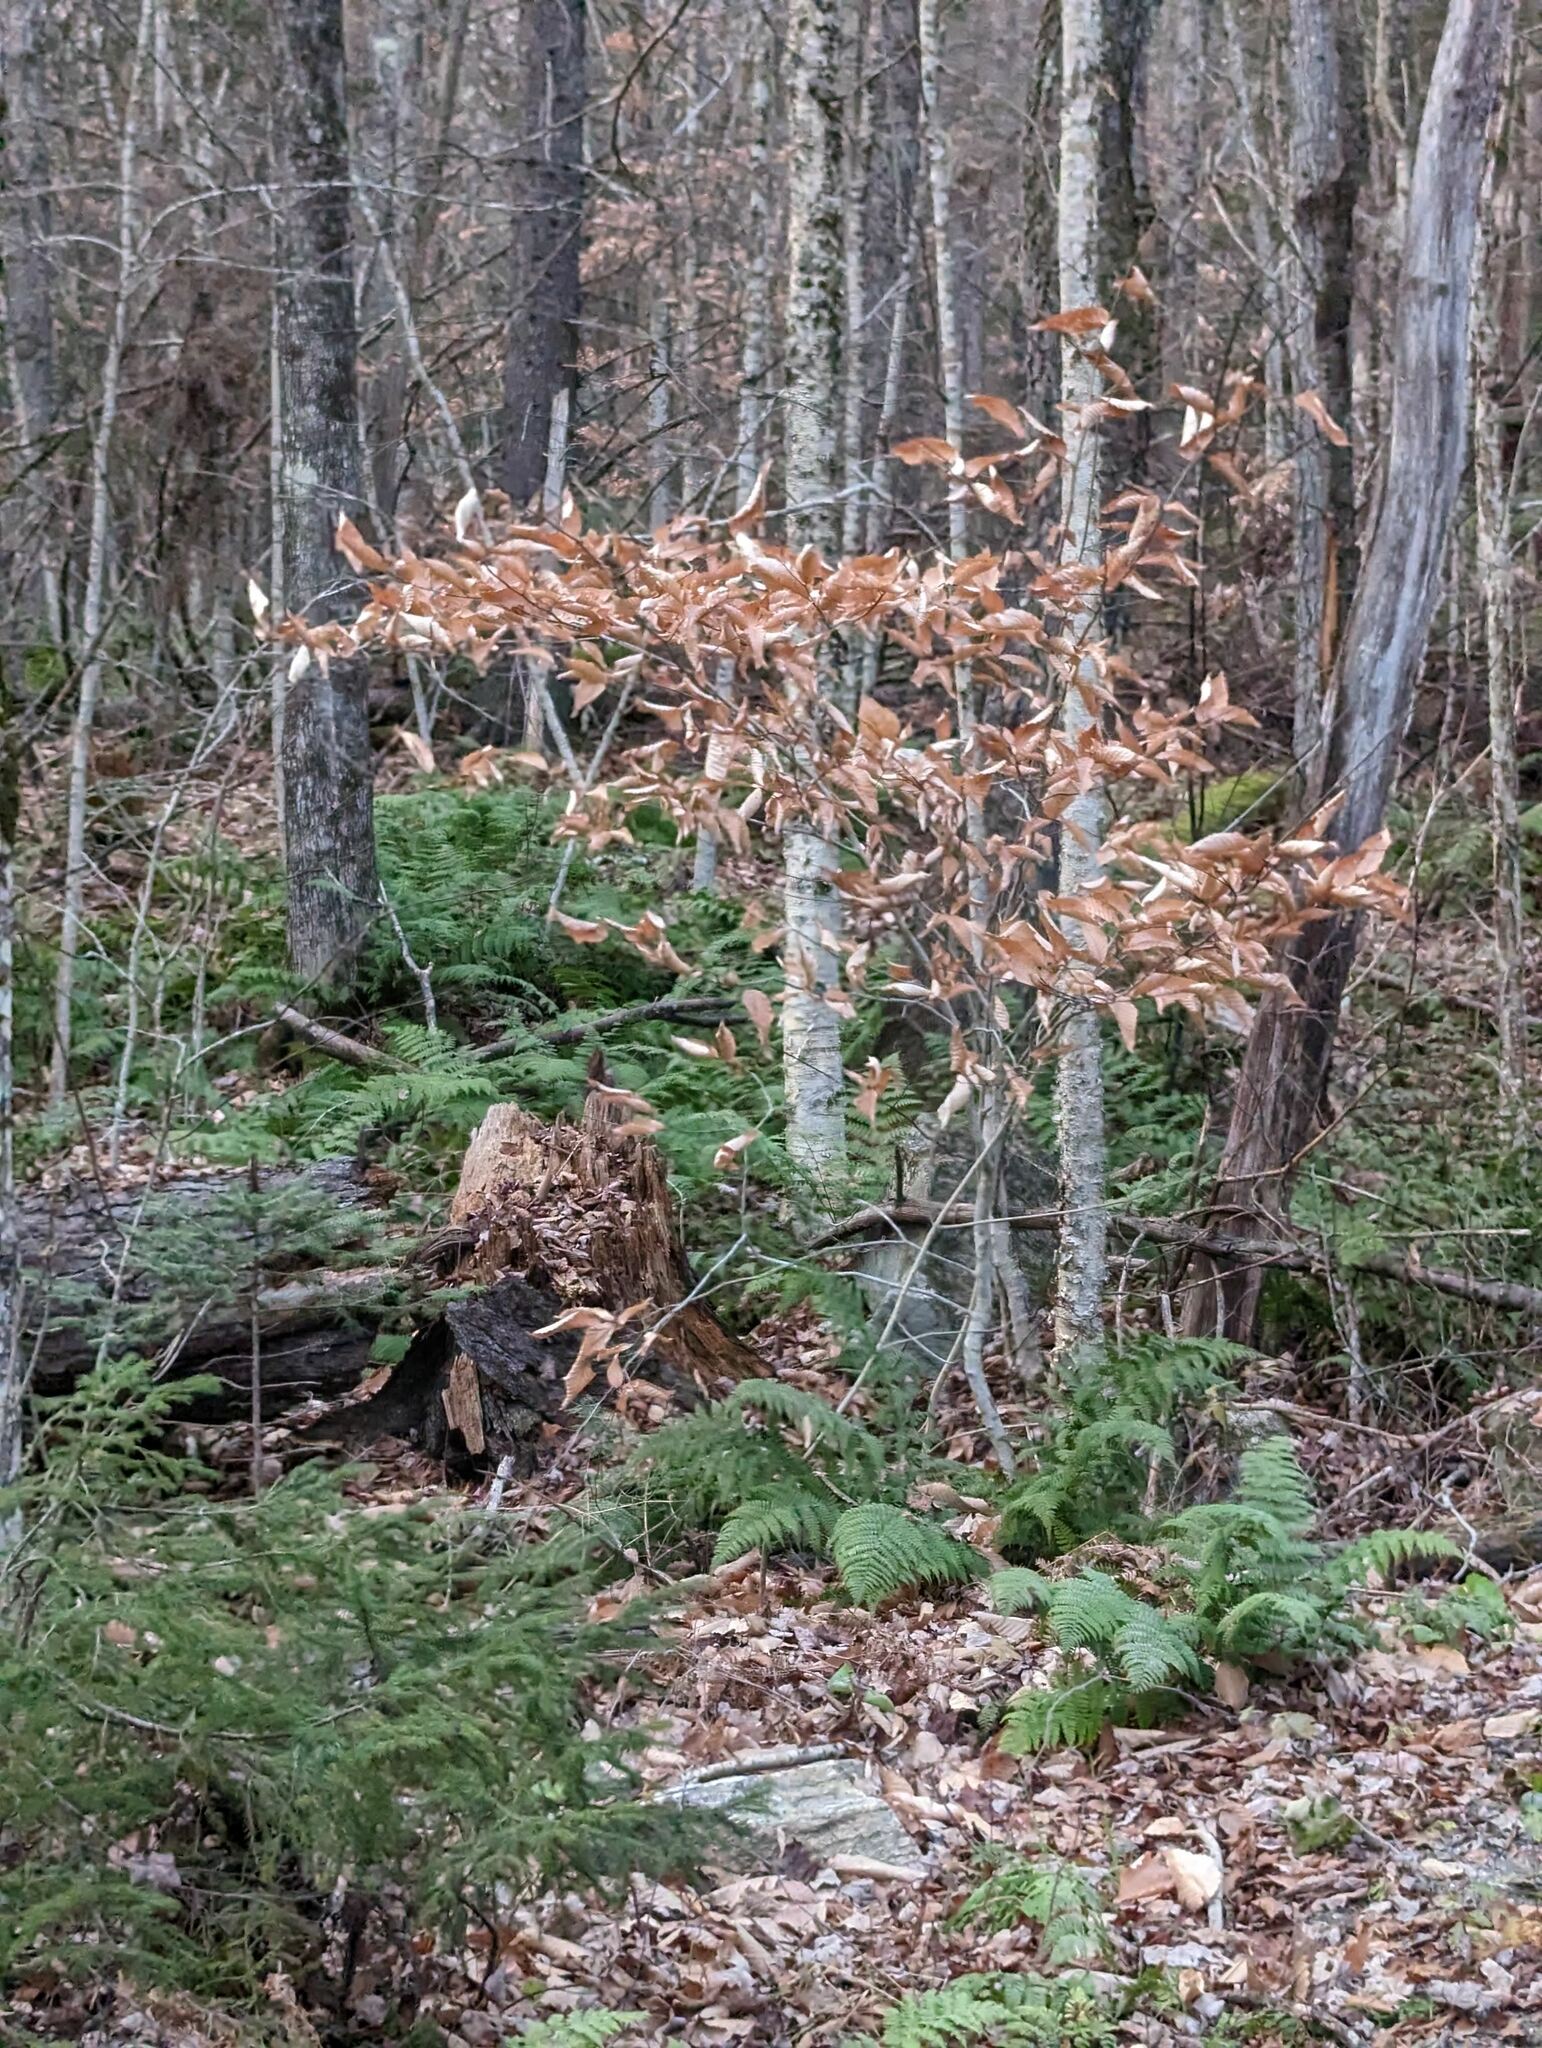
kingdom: Plantae
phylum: Tracheophyta
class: Magnoliopsida
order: Fagales
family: Fagaceae
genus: Fagus
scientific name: Fagus grandifolia
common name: American beech
